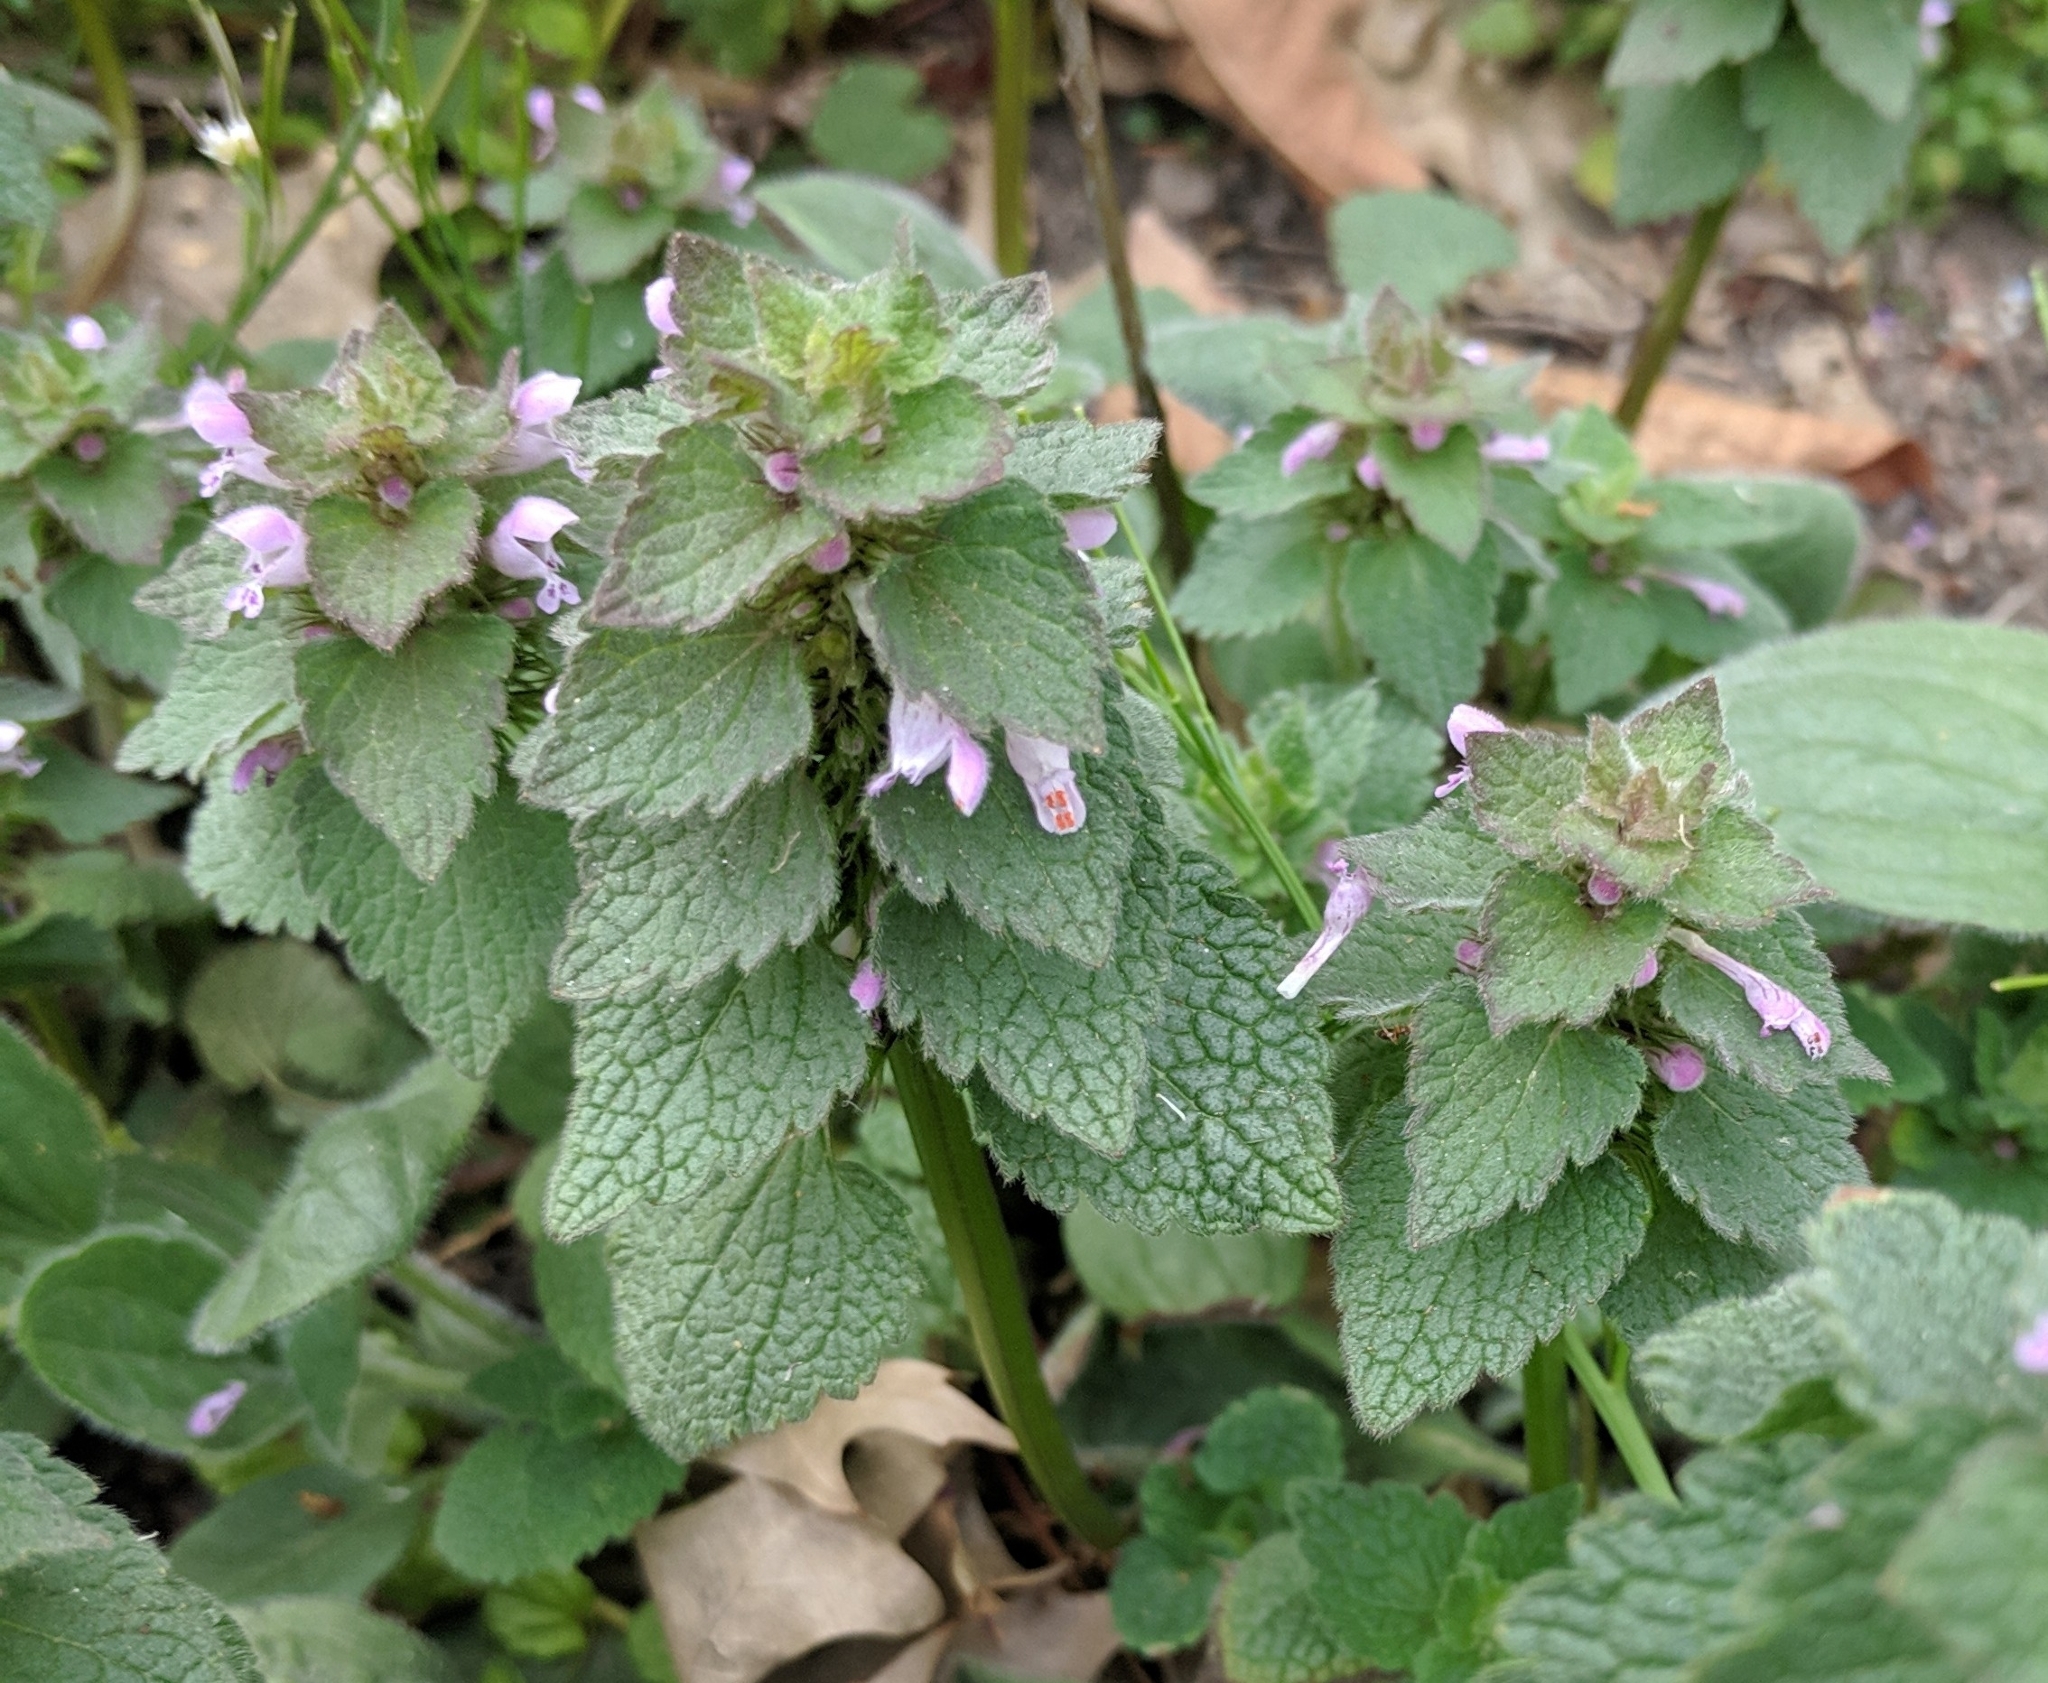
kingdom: Plantae
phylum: Tracheophyta
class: Magnoliopsida
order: Lamiales
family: Lamiaceae
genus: Lamium
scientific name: Lamium purpureum
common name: Red dead-nettle
